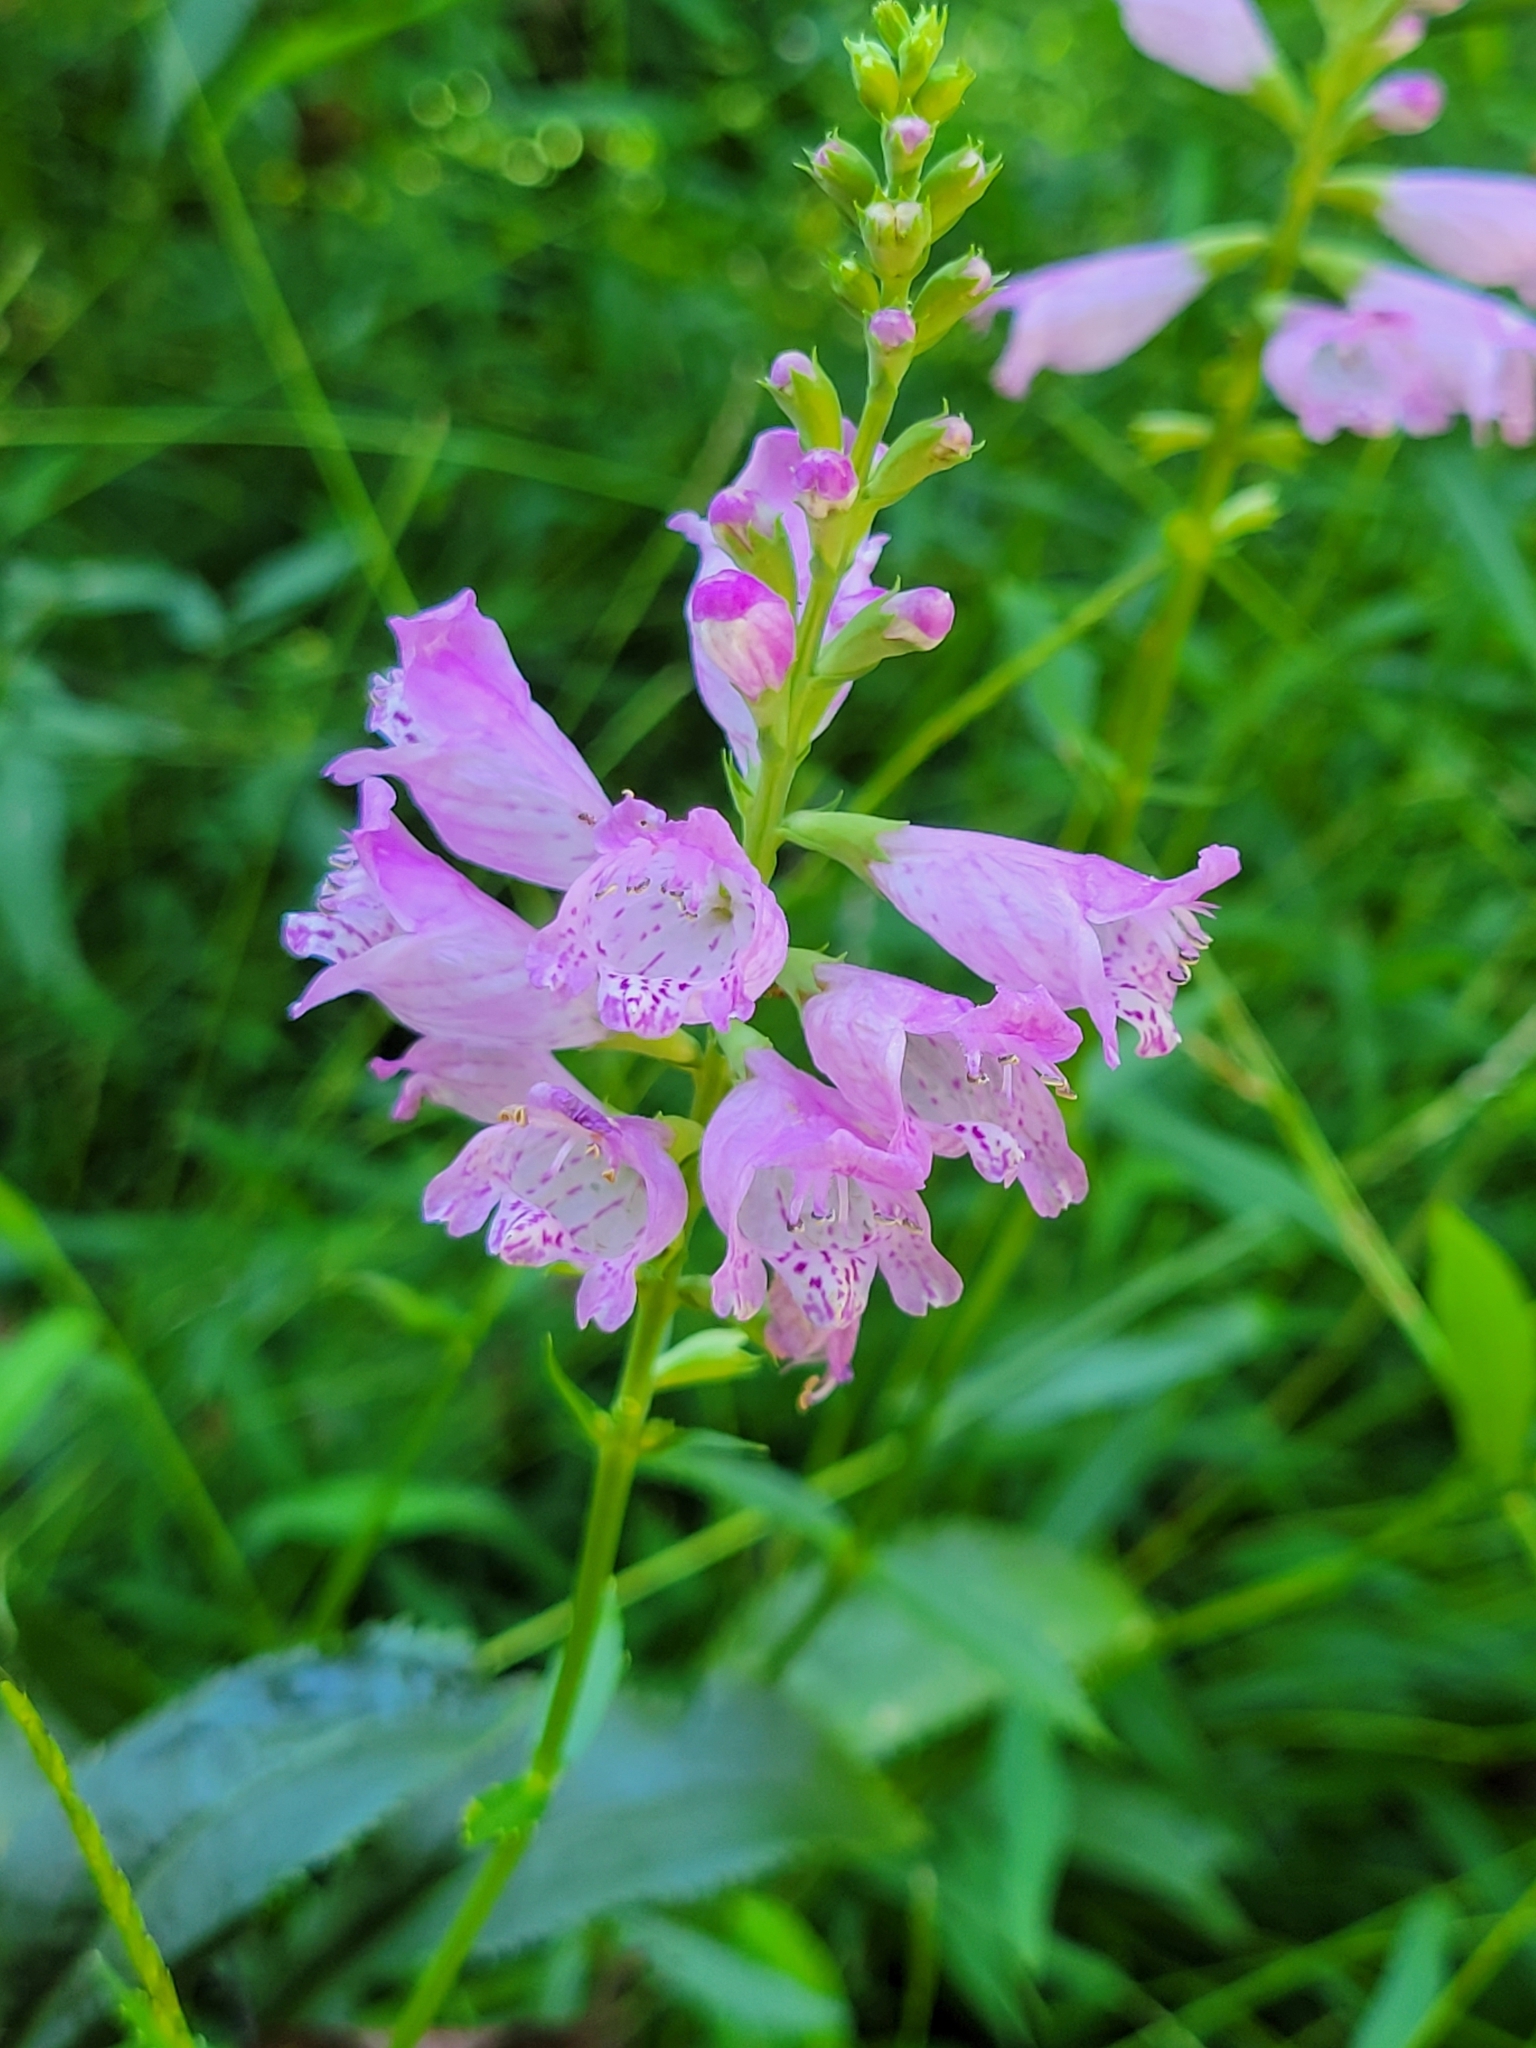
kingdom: Plantae
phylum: Tracheophyta
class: Magnoliopsida
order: Lamiales
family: Lamiaceae
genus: Physostegia
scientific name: Physostegia virginiana
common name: Obedient-plant
